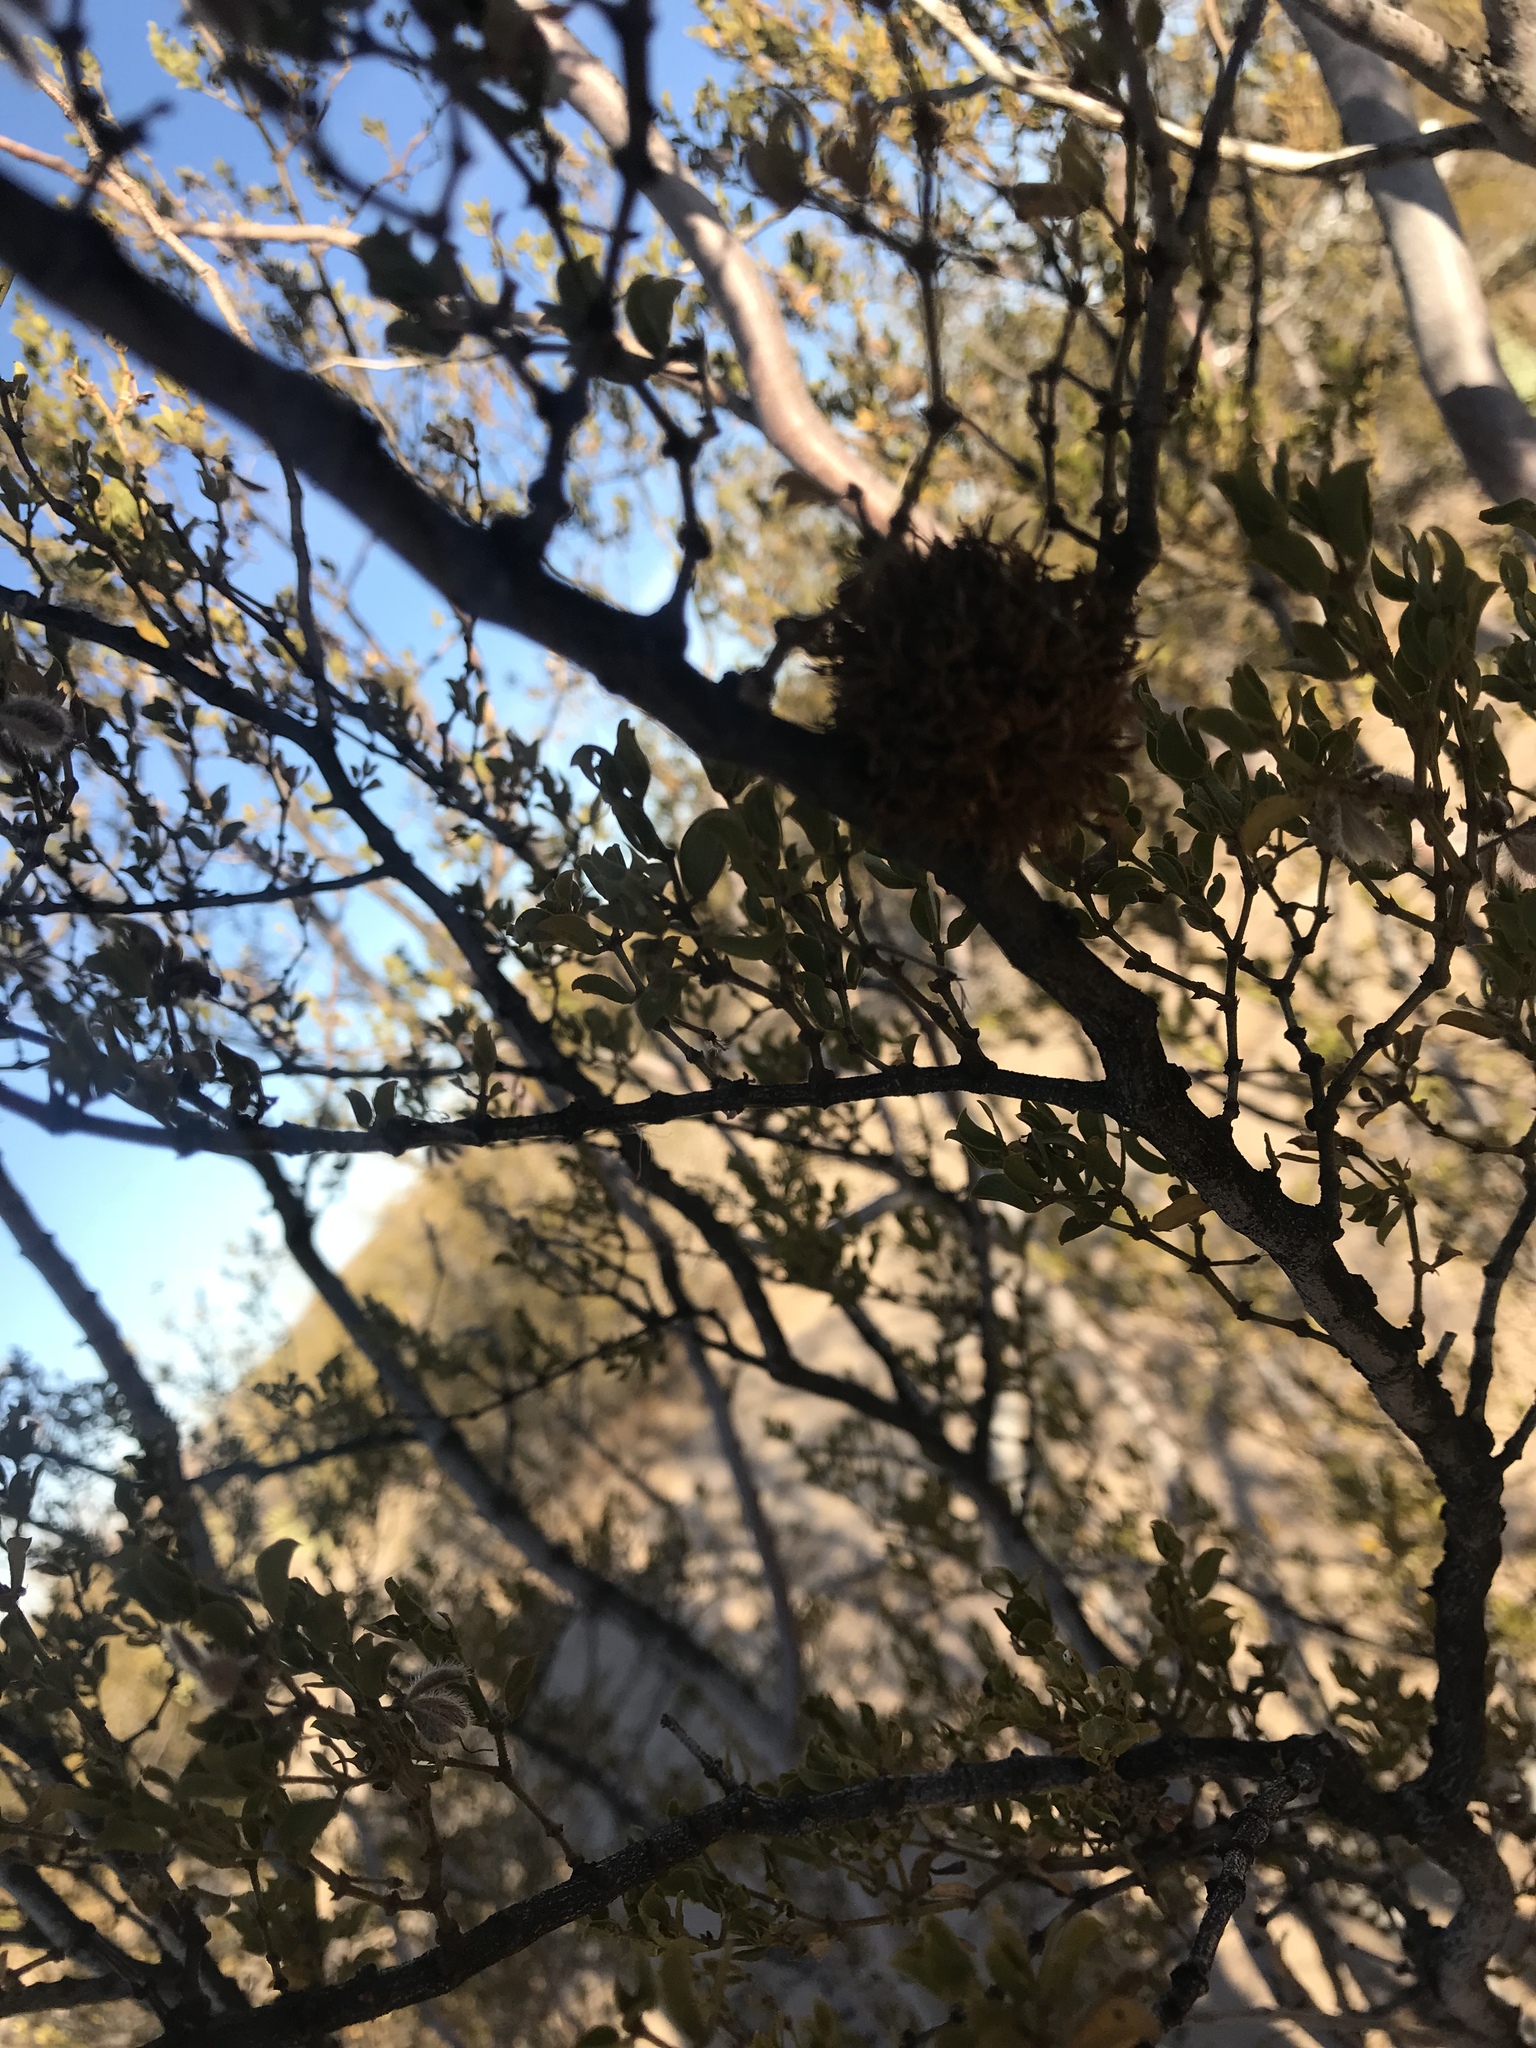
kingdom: Animalia
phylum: Arthropoda
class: Insecta
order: Diptera
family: Cecidomyiidae
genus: Asphondylia
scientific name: Asphondylia auripila
